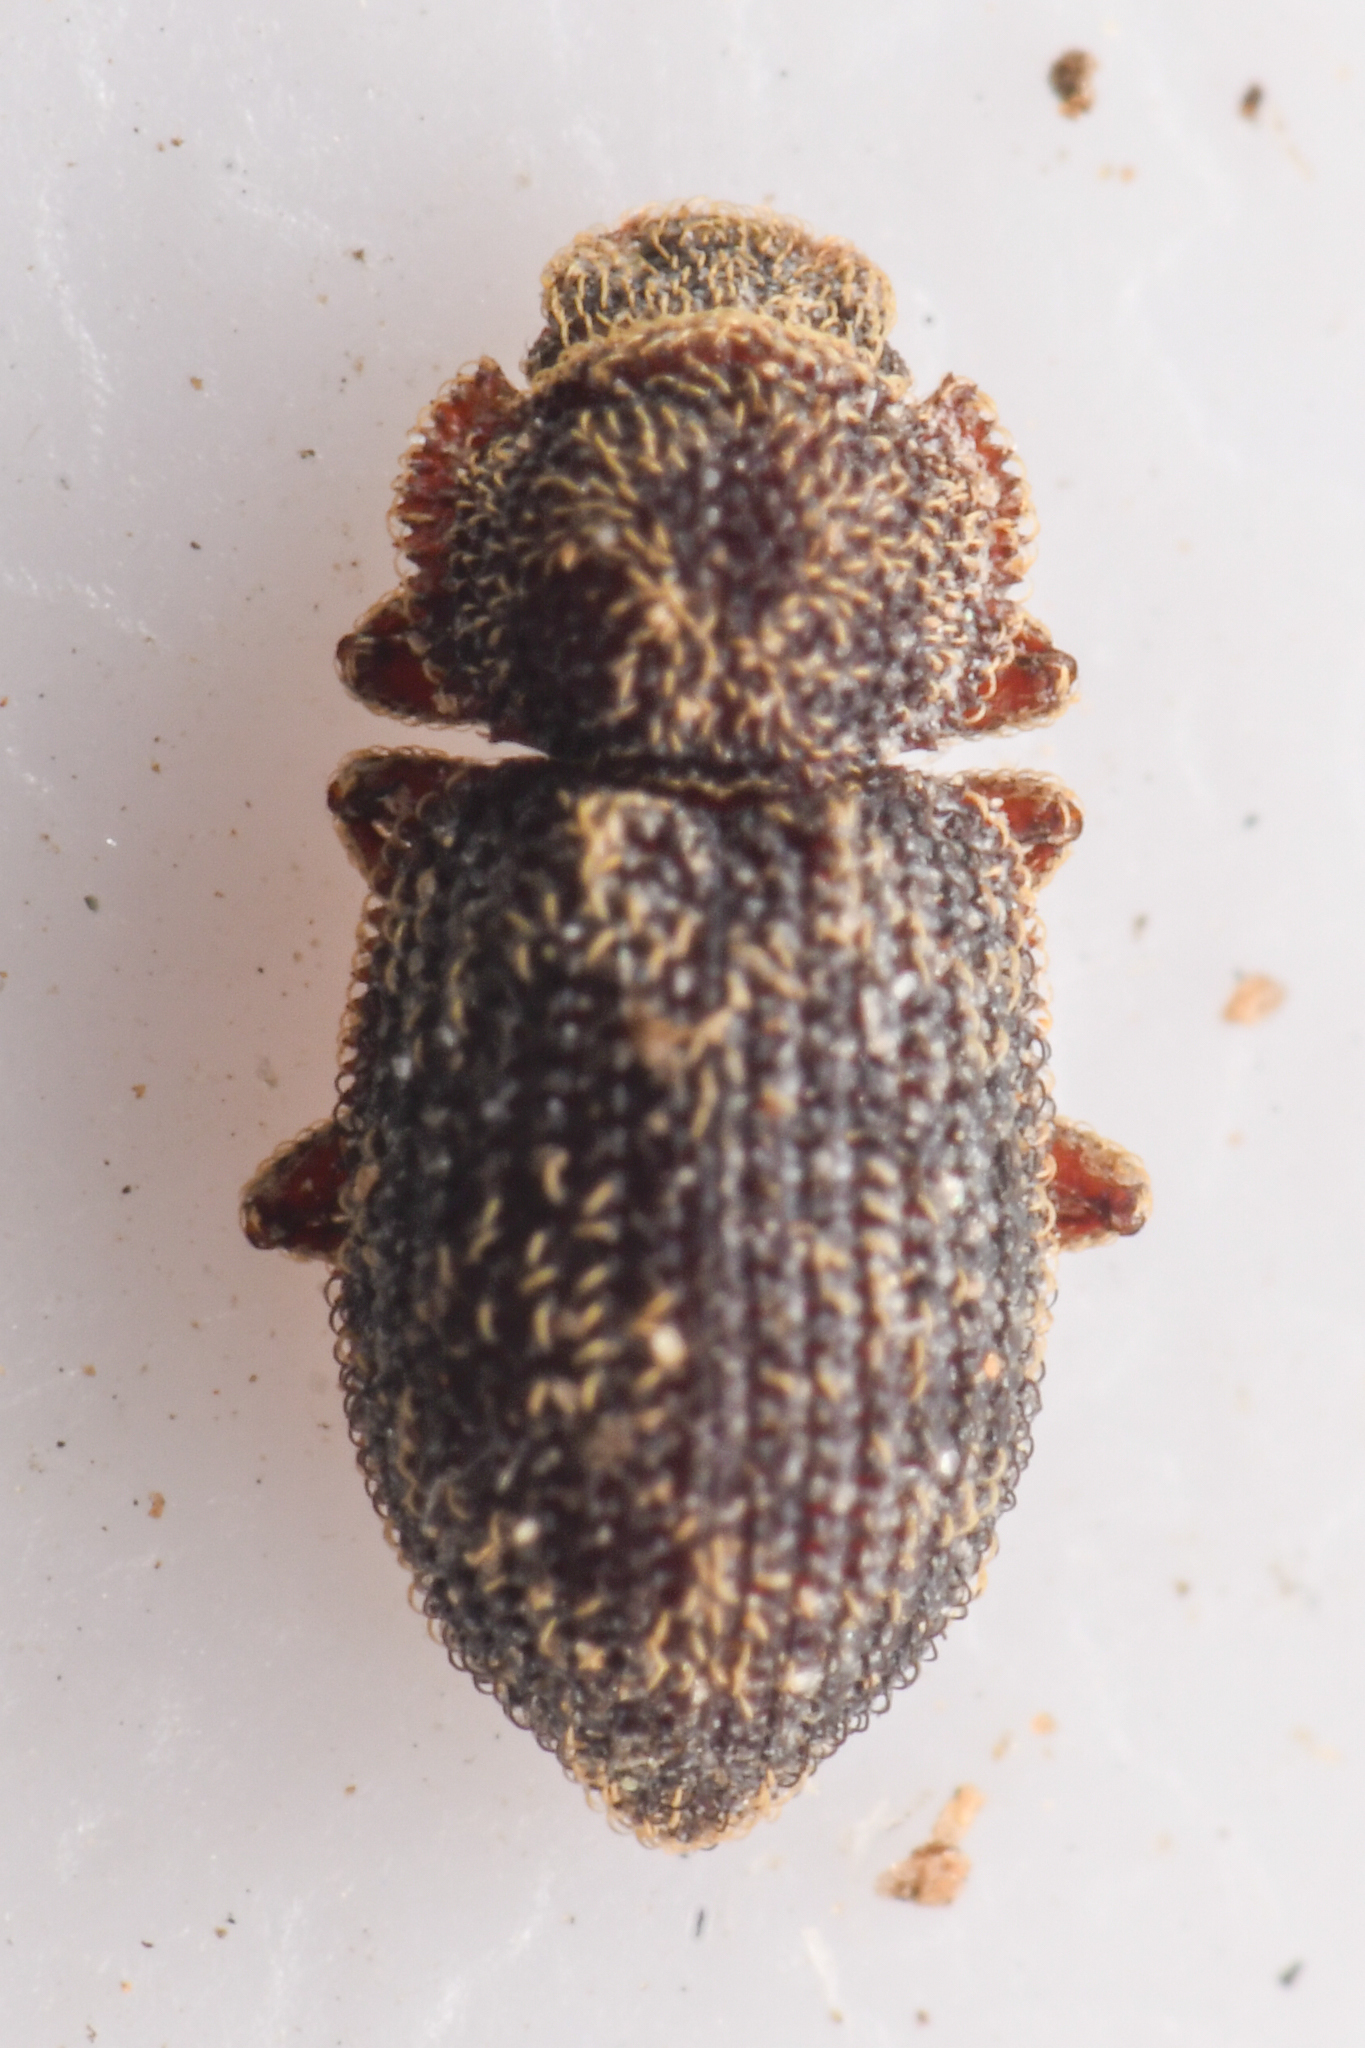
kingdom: Animalia
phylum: Arthropoda
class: Insecta
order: Coleoptera
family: Zopheridae
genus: Coxelus
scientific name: Coxelus serratus
